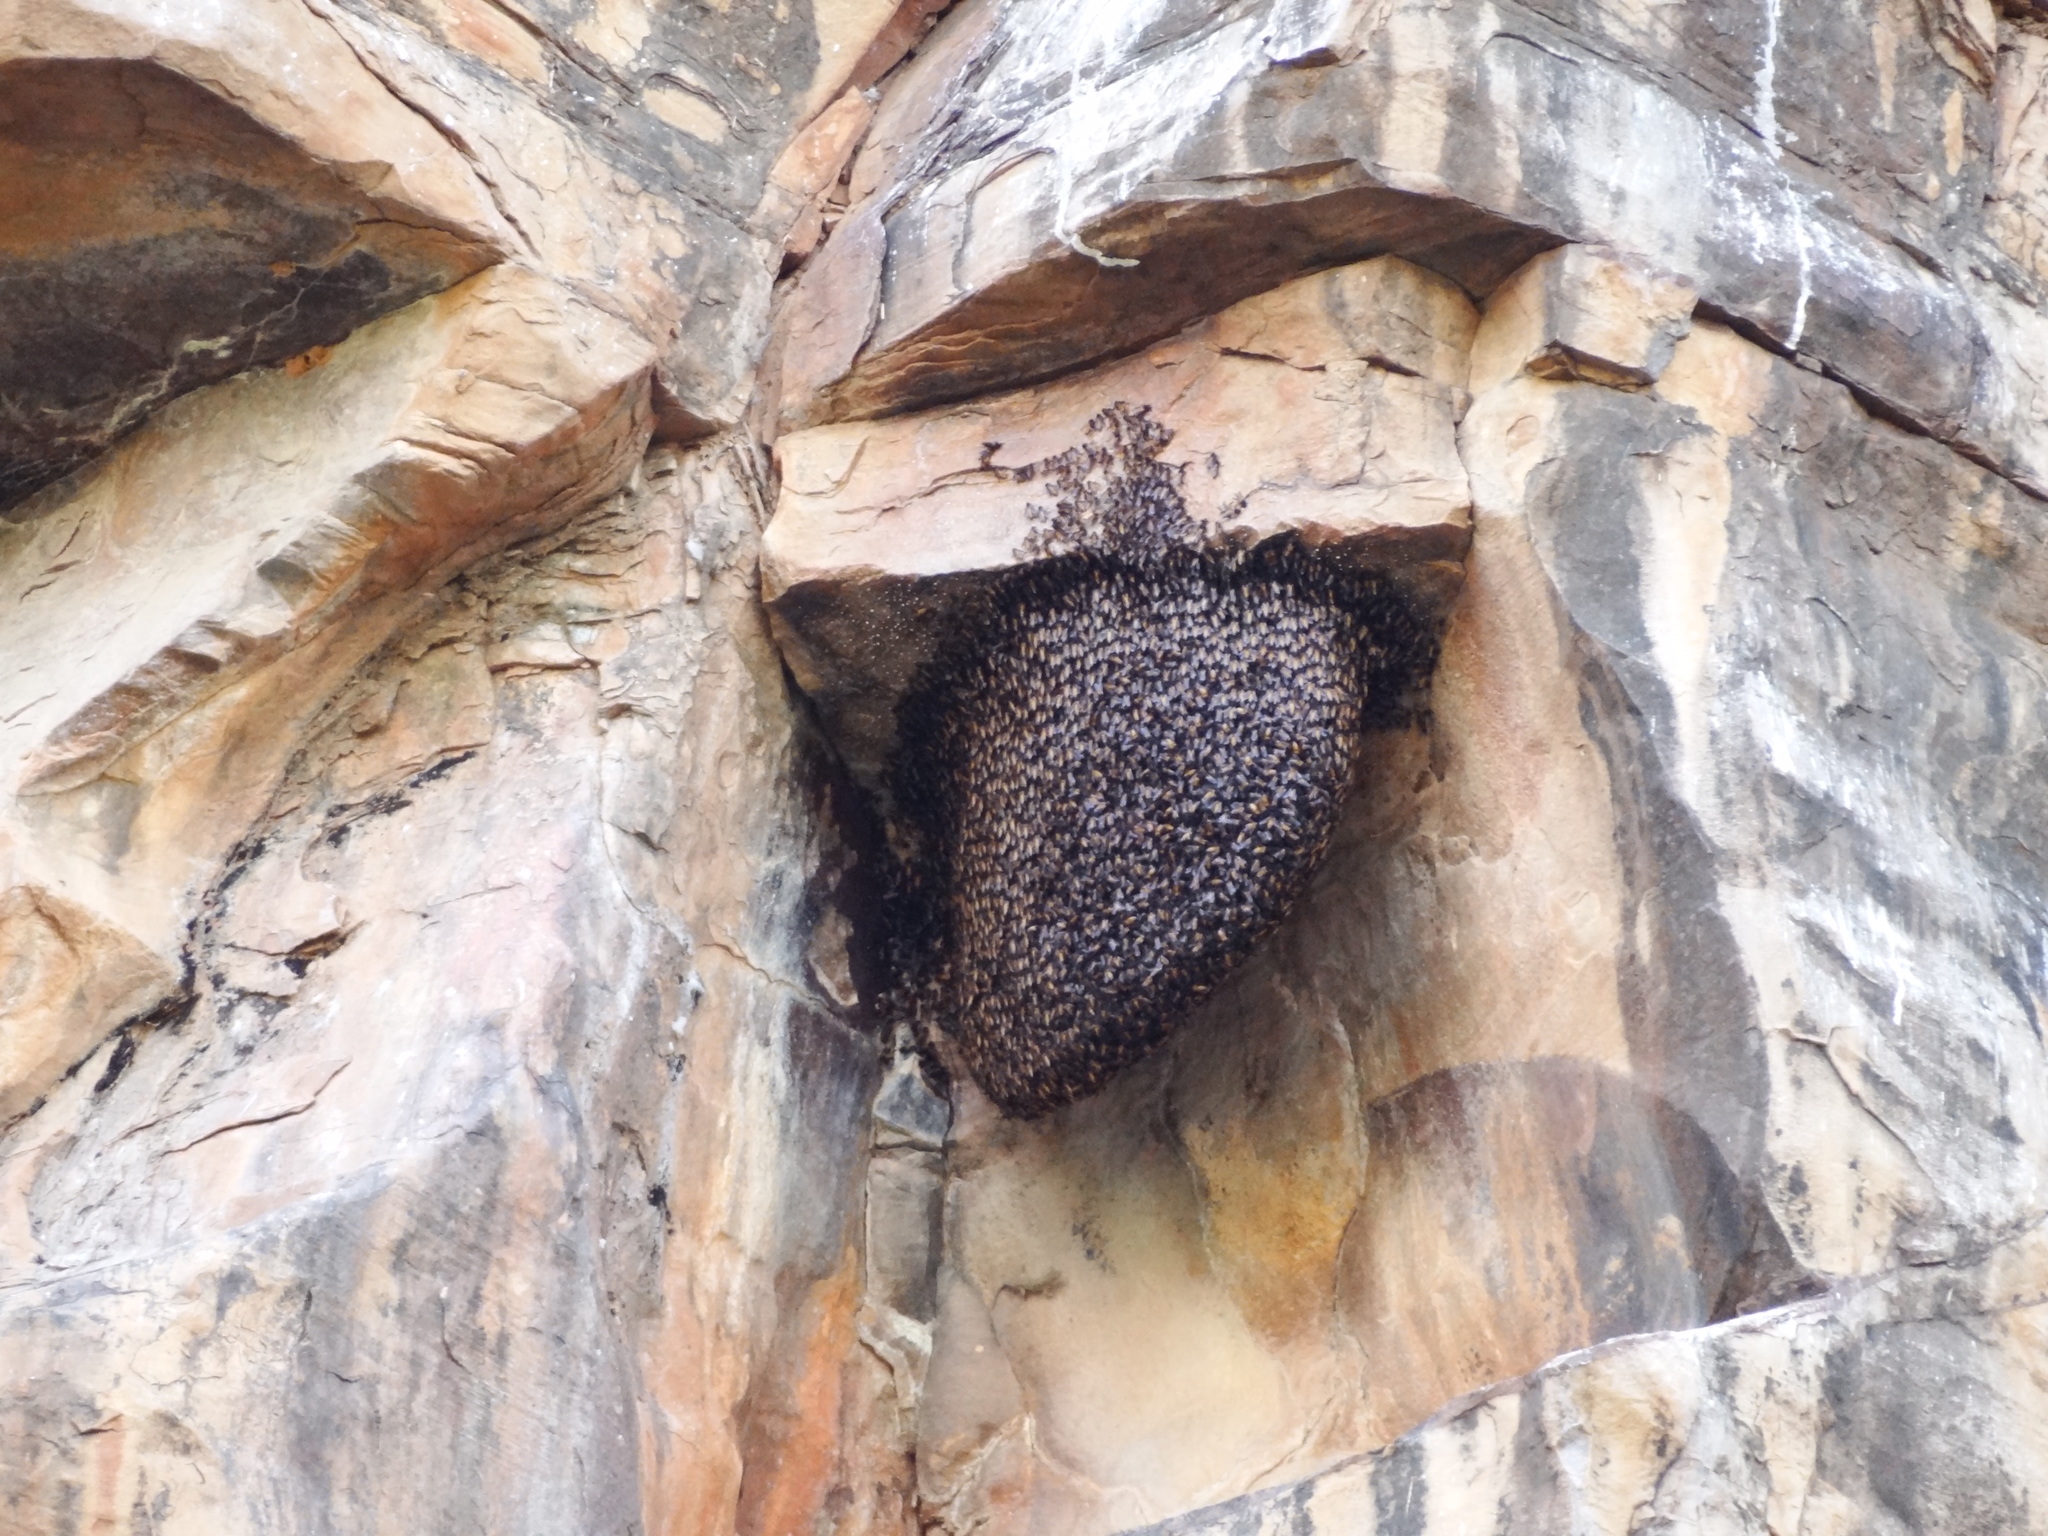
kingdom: Animalia
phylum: Arthropoda
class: Insecta
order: Hymenoptera
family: Apidae
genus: Apis
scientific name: Apis dorsata
